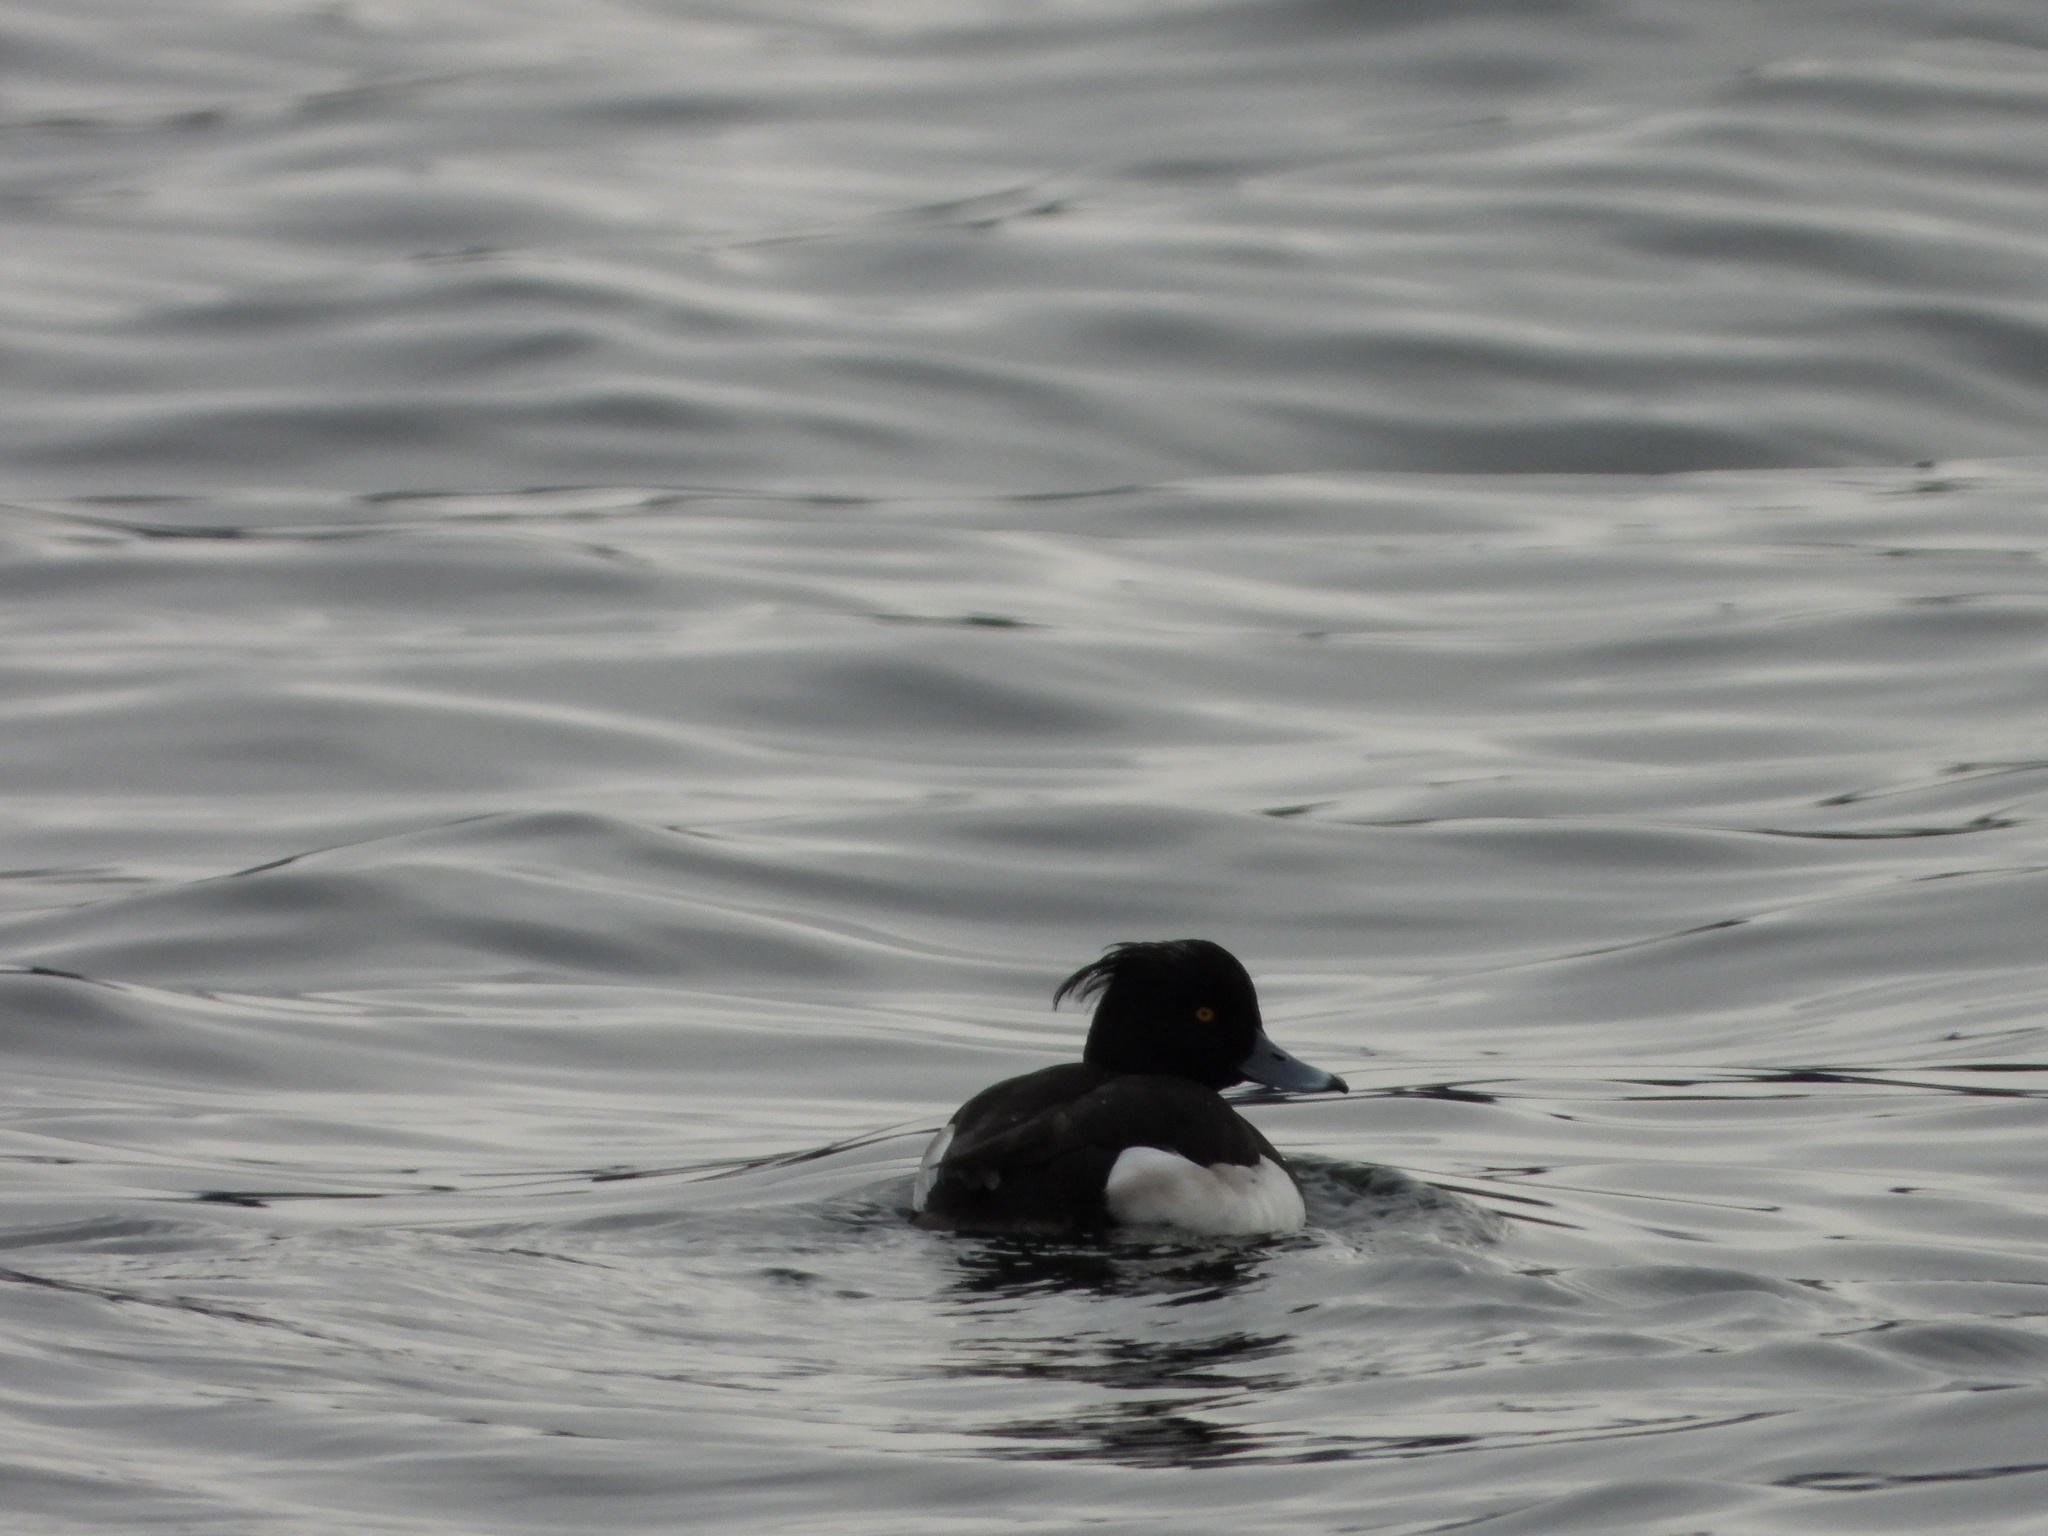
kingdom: Animalia
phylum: Chordata
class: Aves
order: Anseriformes
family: Anatidae
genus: Aythya
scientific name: Aythya fuligula
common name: Tufted duck
